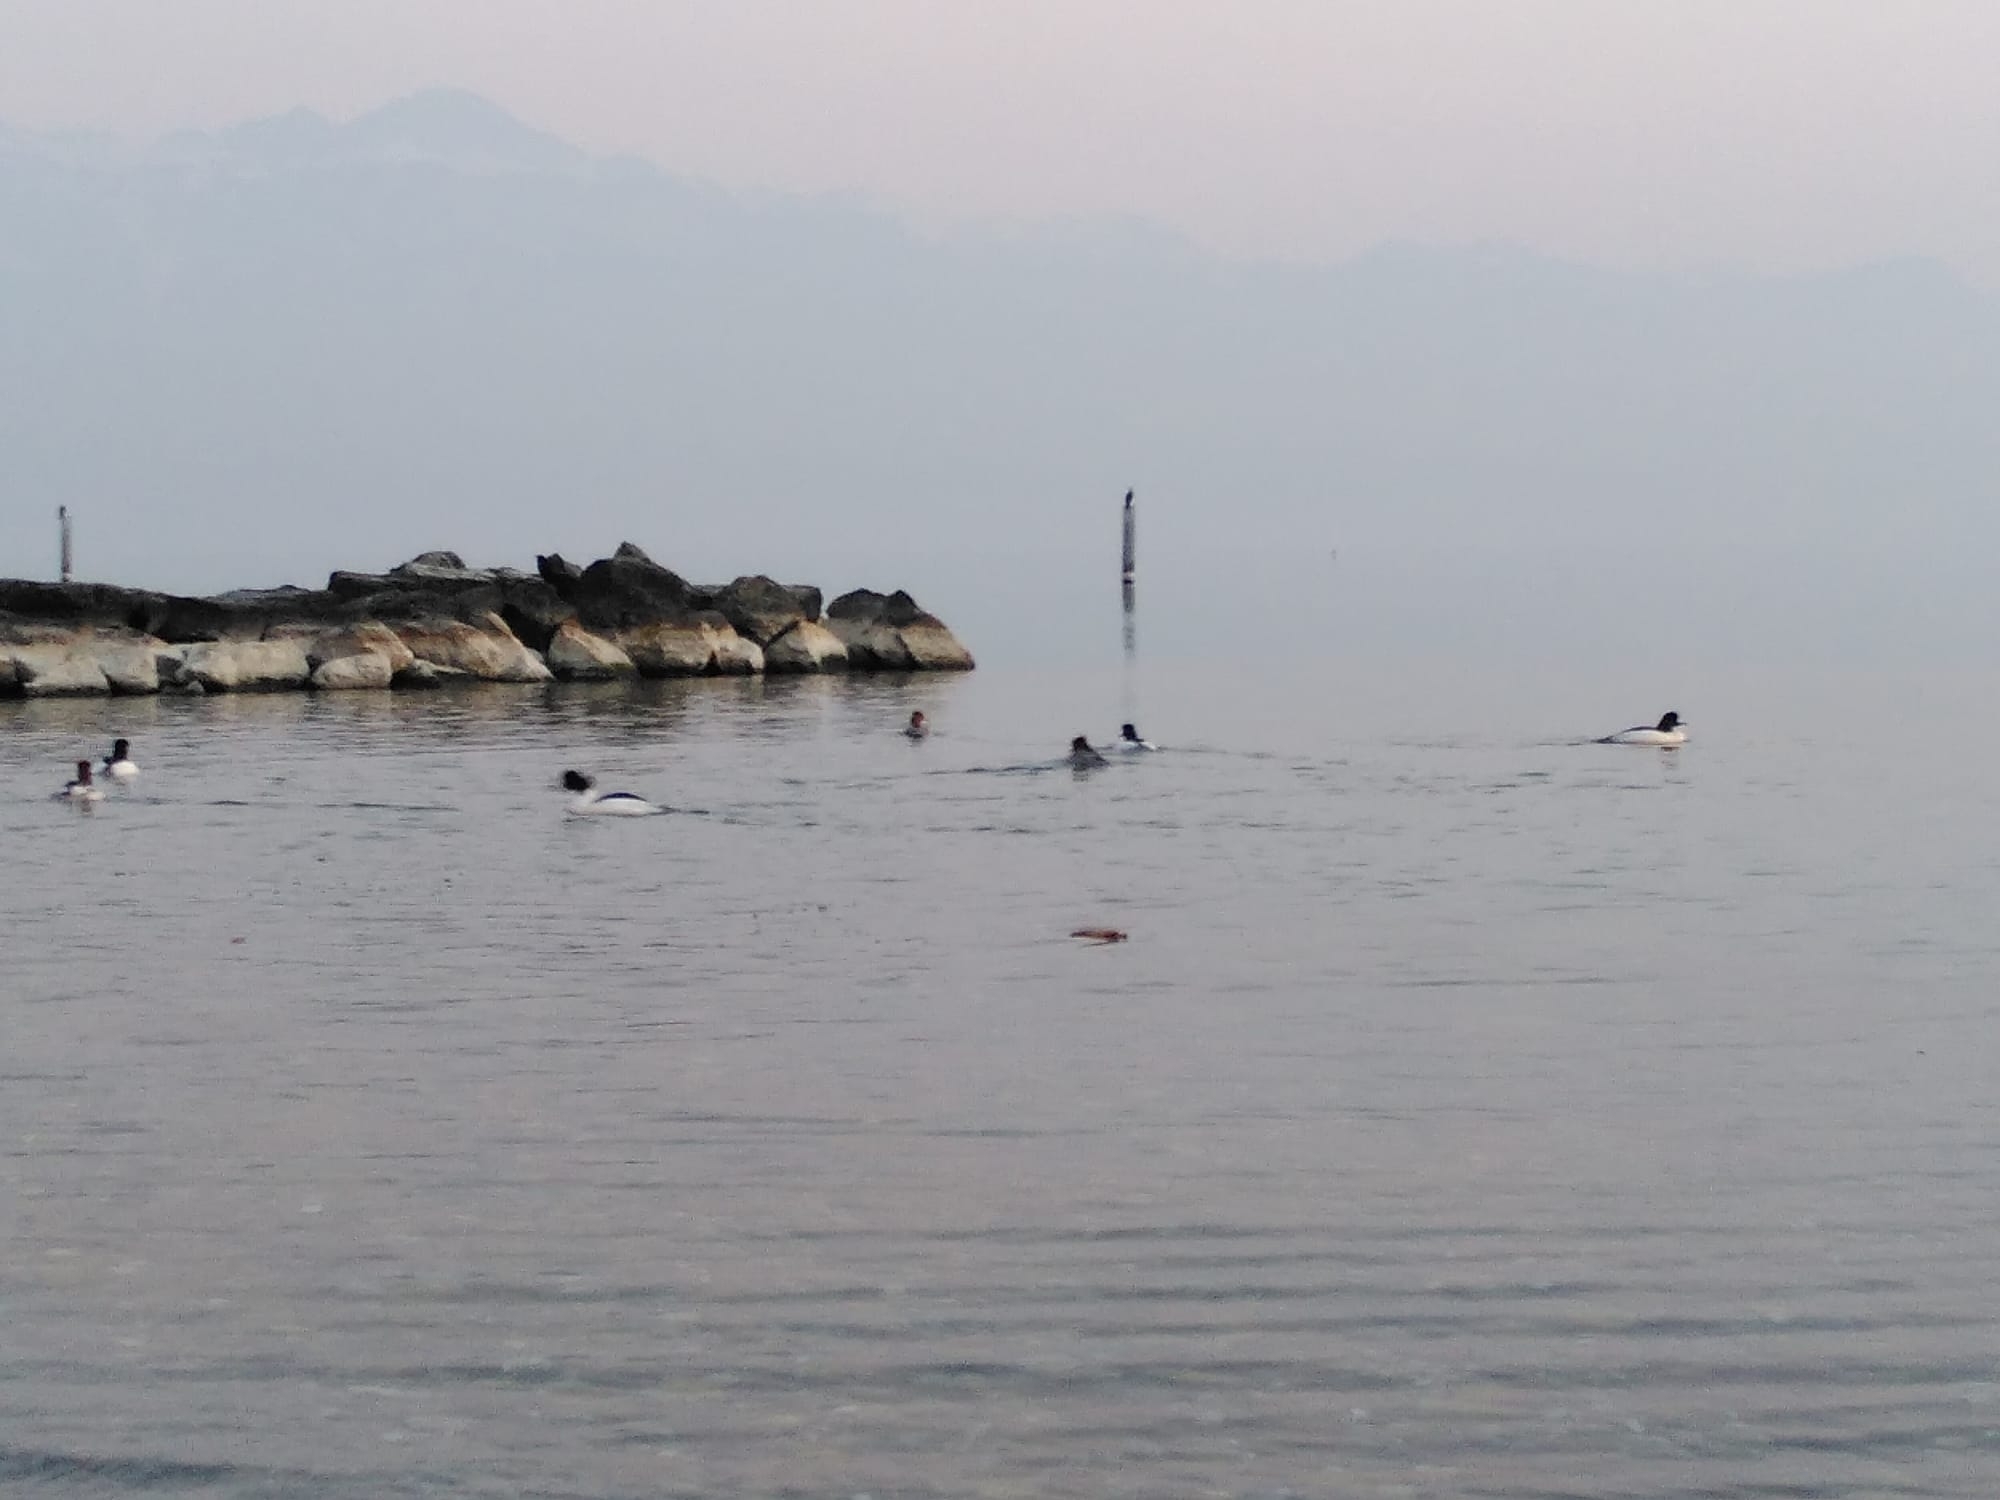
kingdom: Animalia
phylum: Chordata
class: Aves
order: Anseriformes
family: Anatidae
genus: Mergus
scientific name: Mergus merganser
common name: Common merganser
